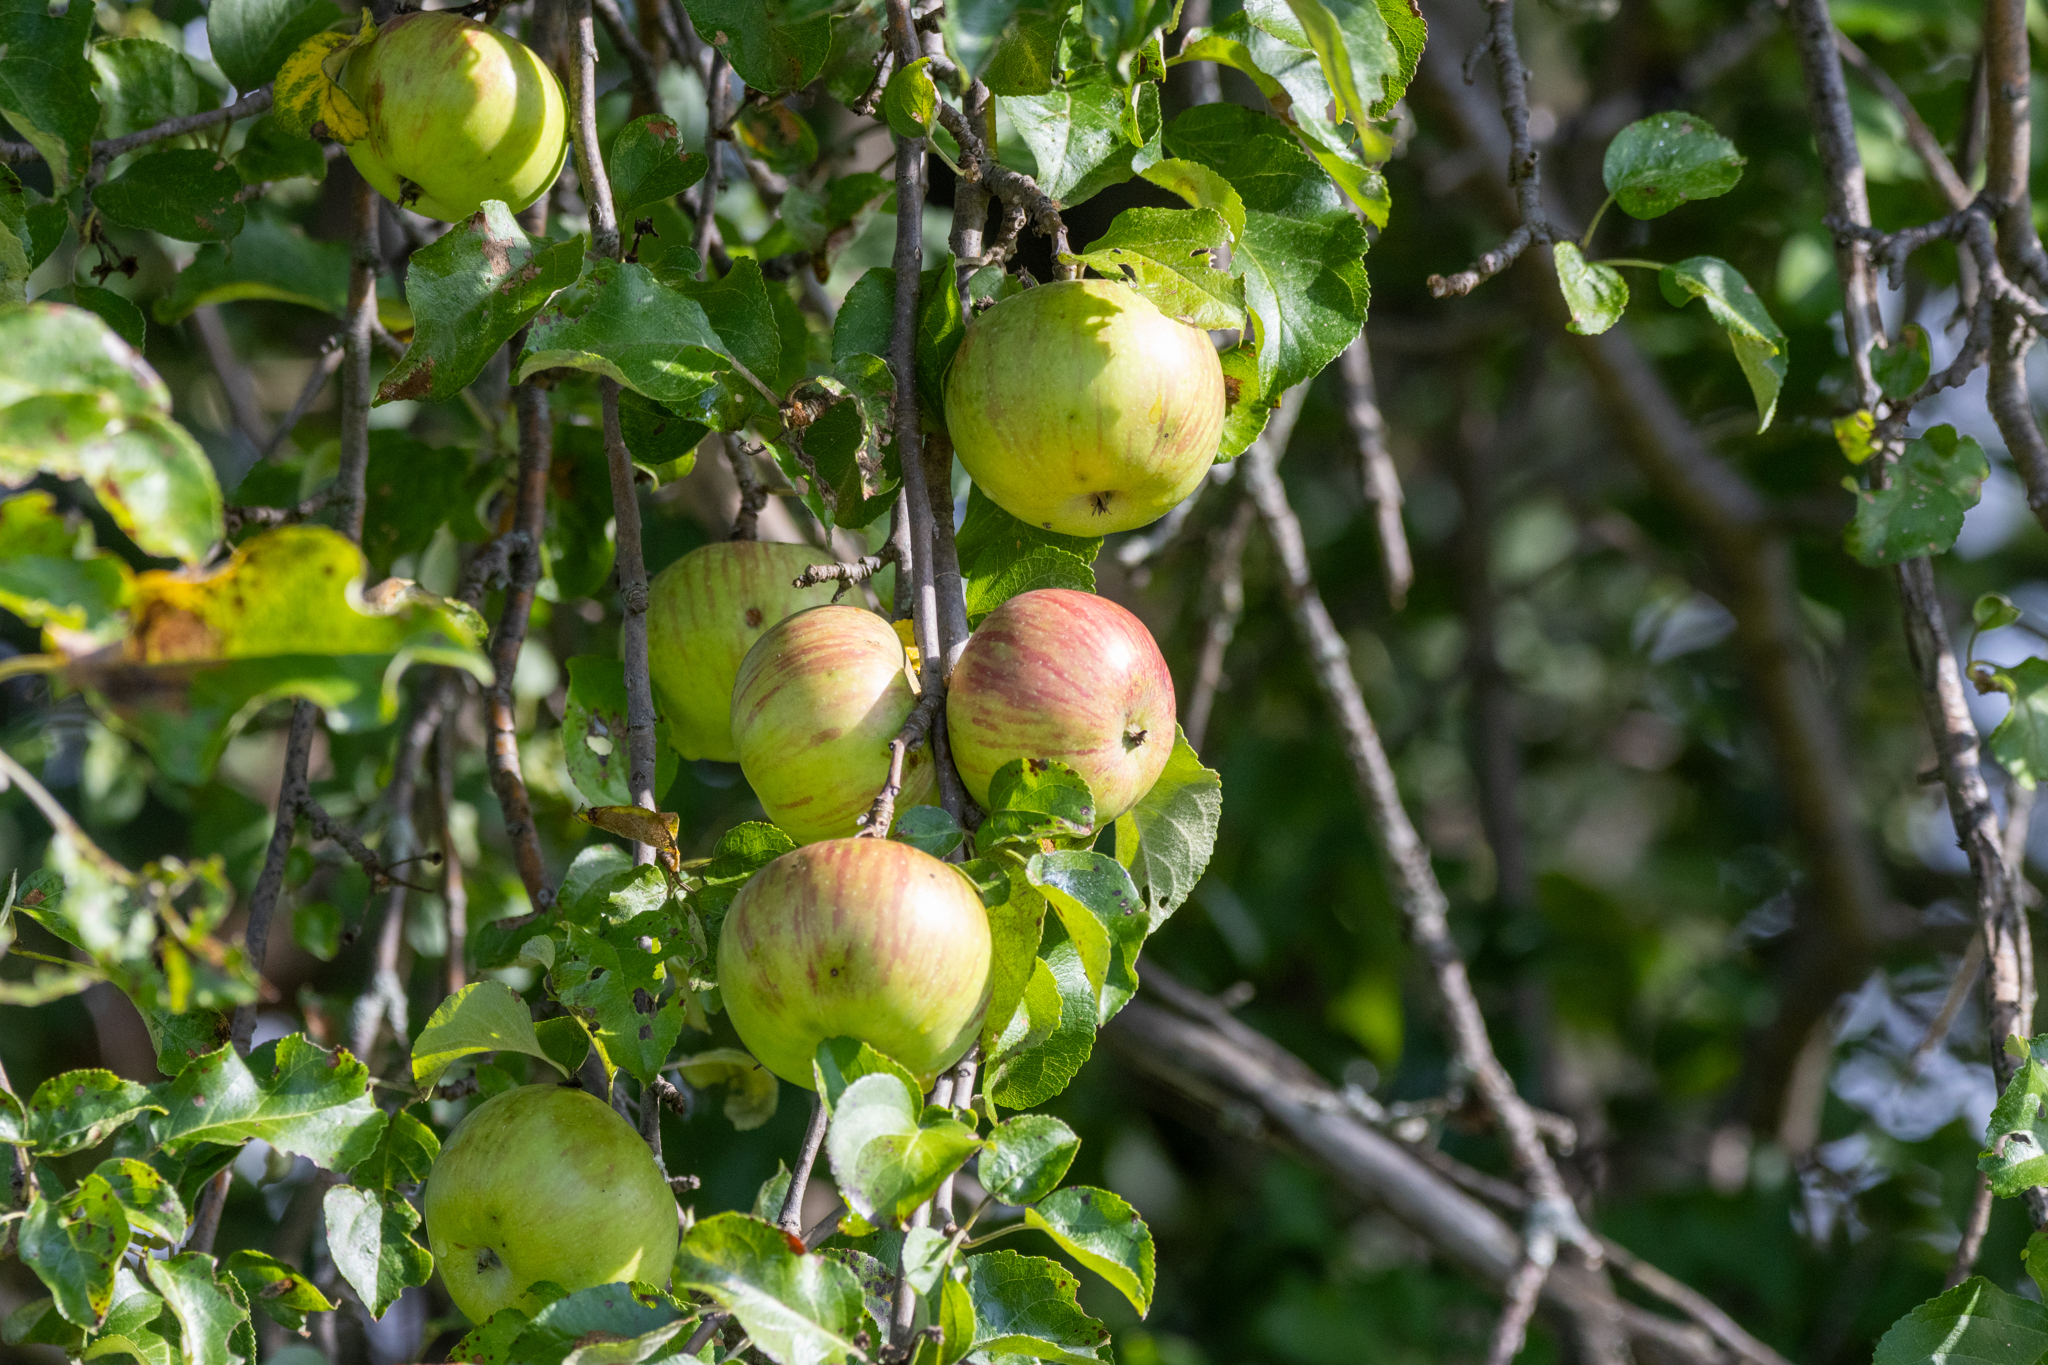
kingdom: Plantae
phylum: Tracheophyta
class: Magnoliopsida
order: Rosales
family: Rosaceae
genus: Malus
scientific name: Malus domestica
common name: Apple
